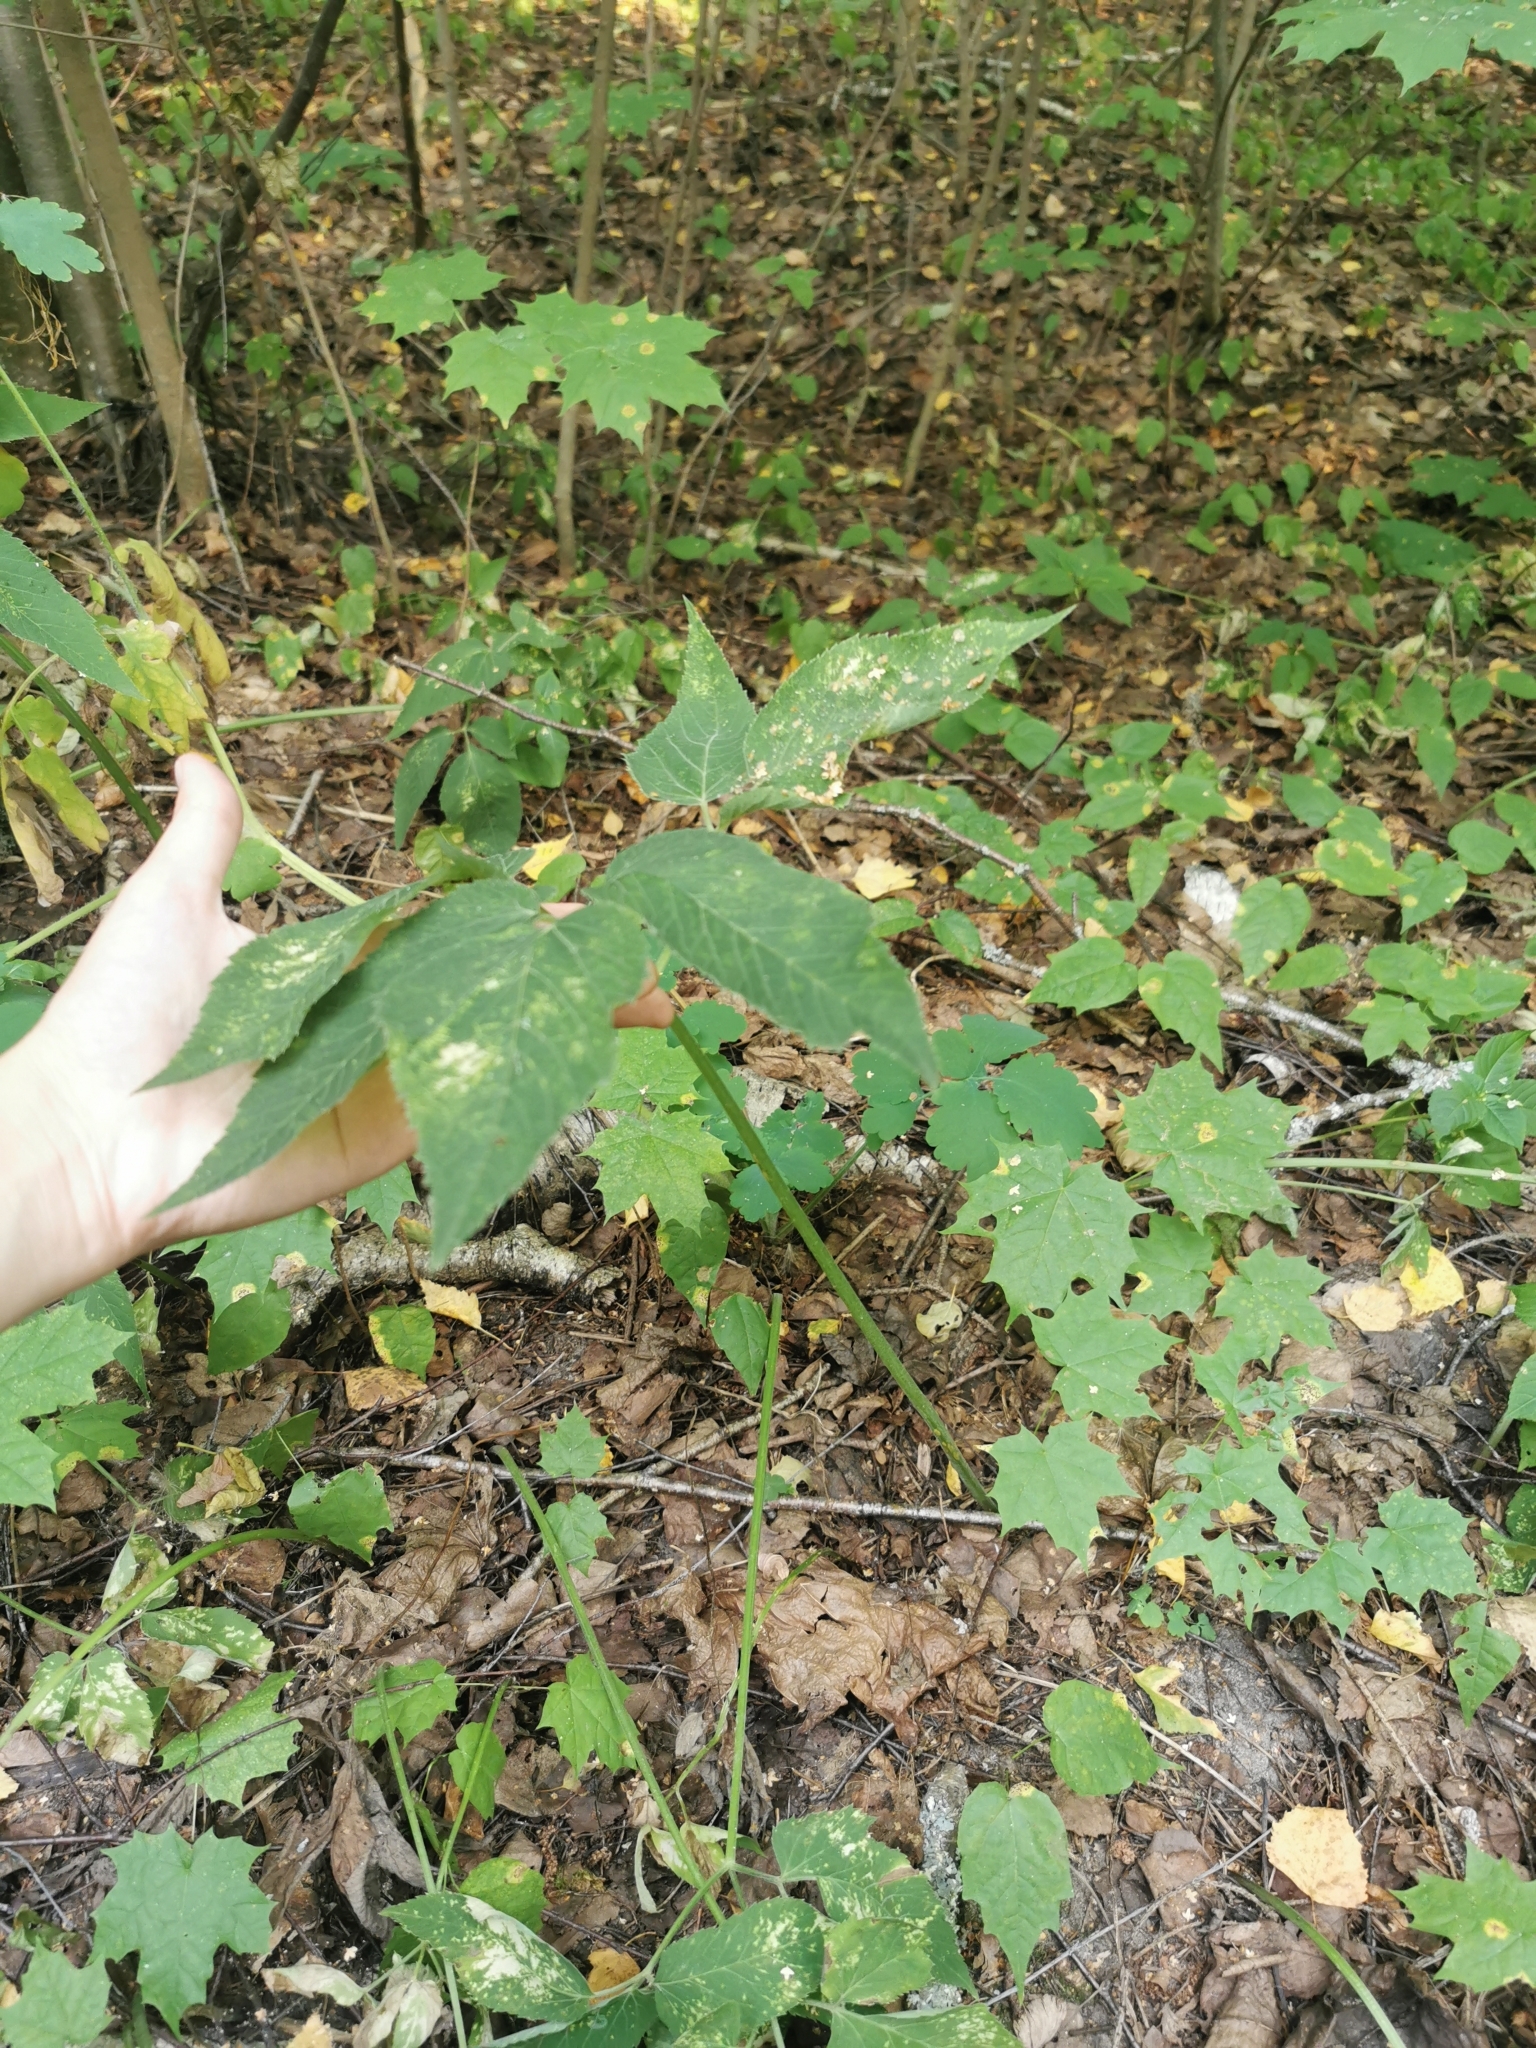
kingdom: Plantae
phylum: Tracheophyta
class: Magnoliopsida
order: Apiales
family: Apiaceae
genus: Aegopodium
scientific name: Aegopodium podagraria
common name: Ground-elder
